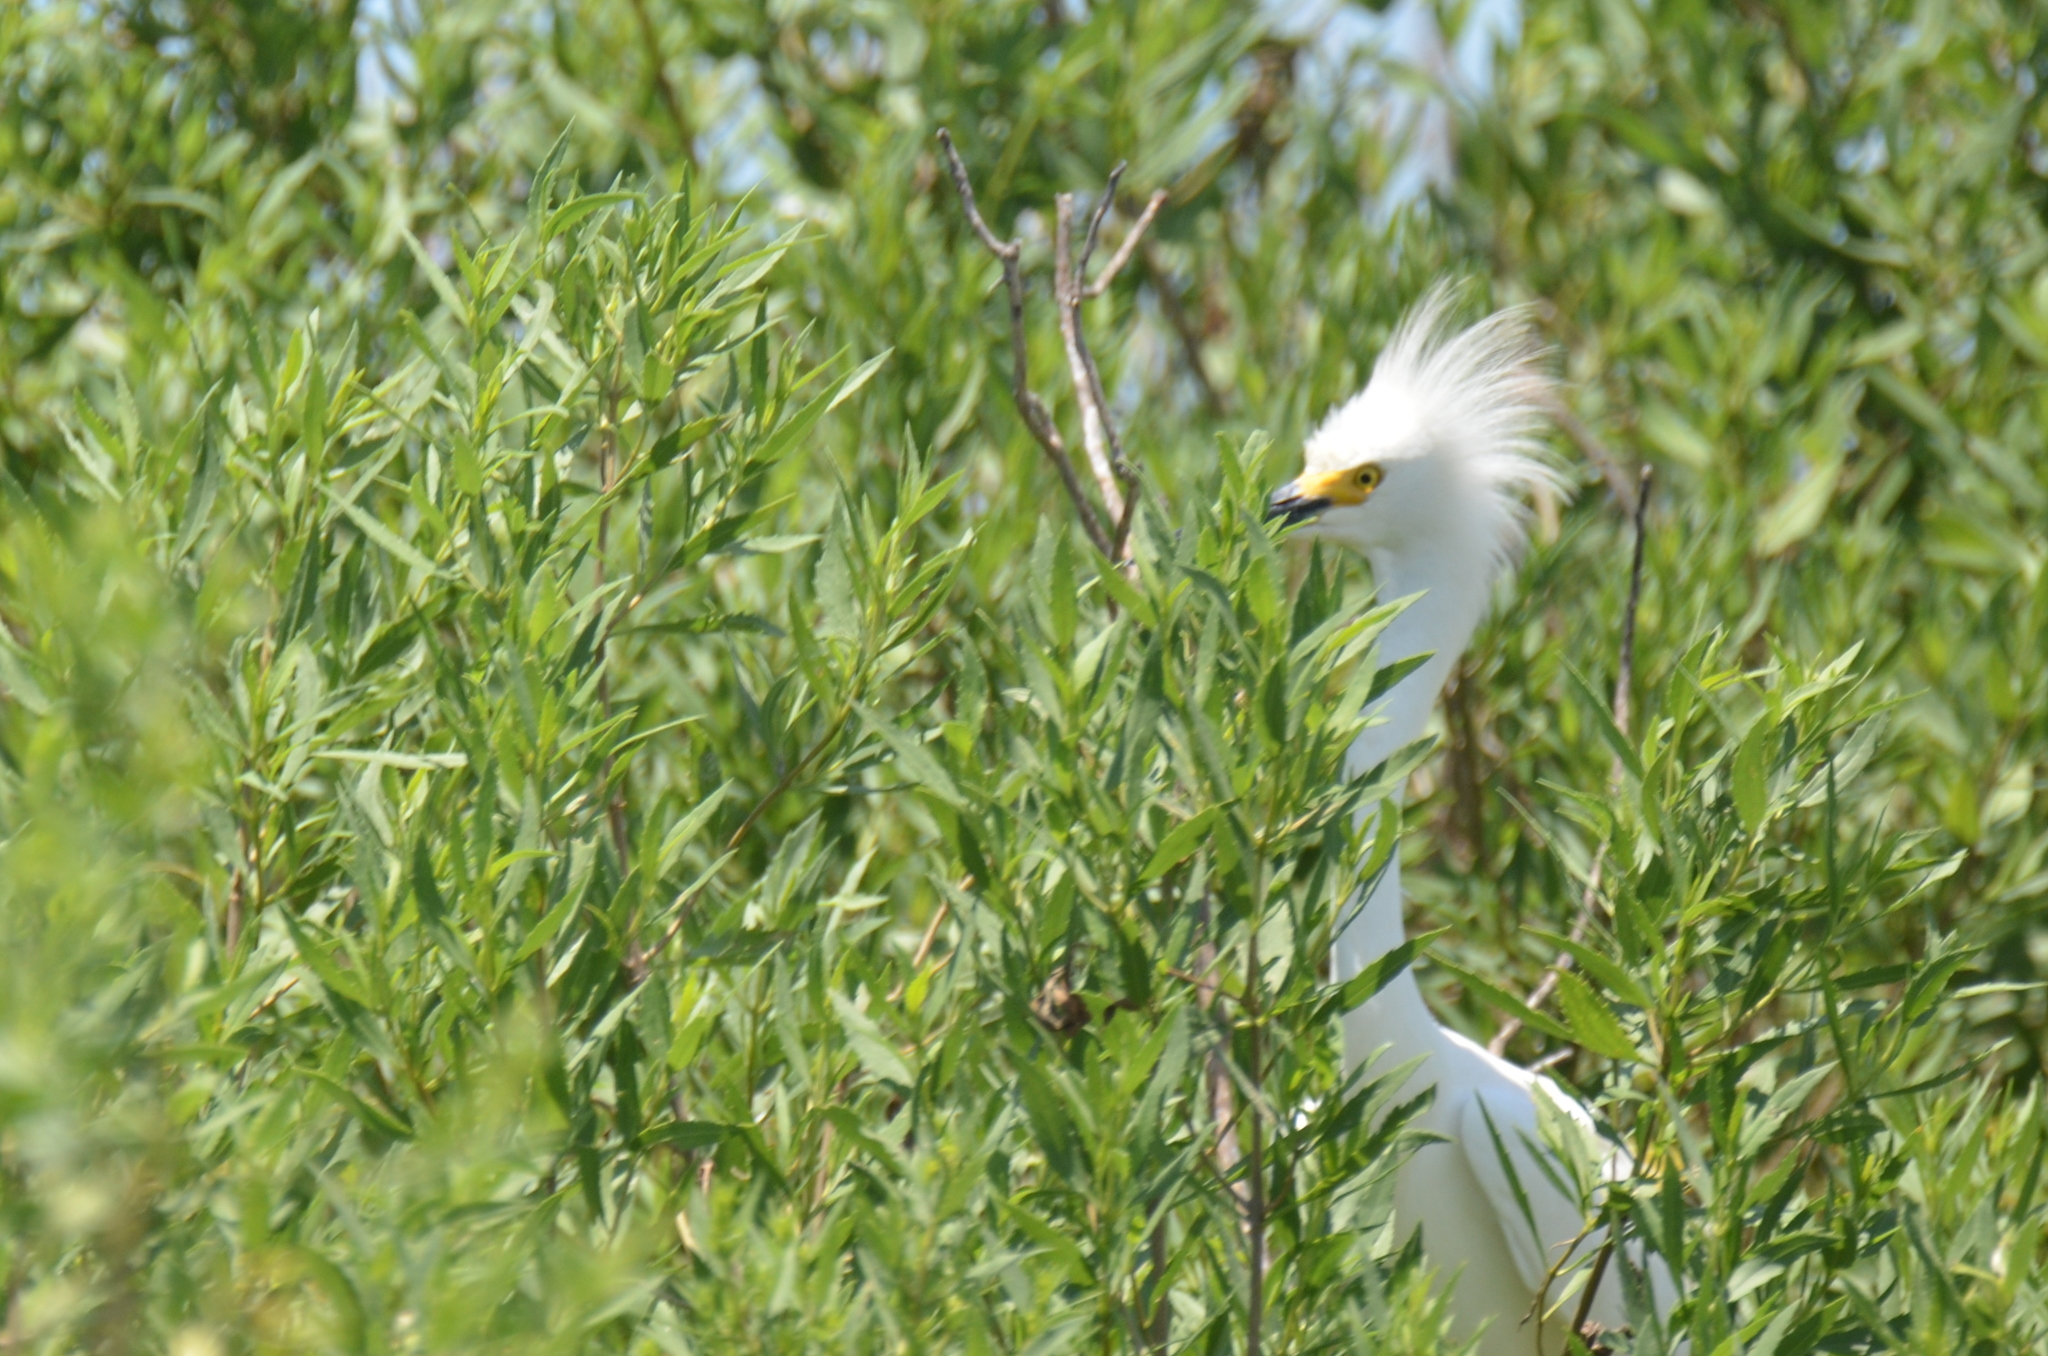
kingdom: Animalia
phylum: Chordata
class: Aves
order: Pelecaniformes
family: Ardeidae
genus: Egretta
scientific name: Egretta thula
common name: Snowy egret
